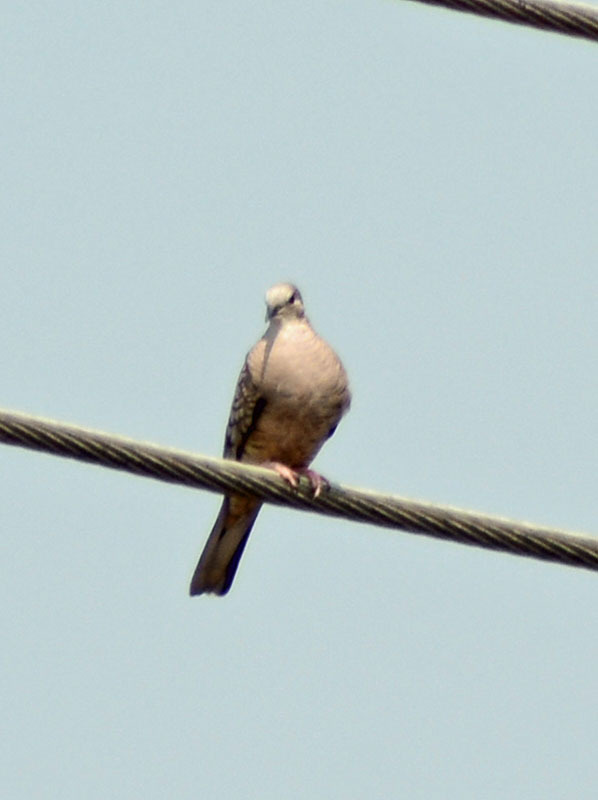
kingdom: Animalia
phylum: Chordata
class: Aves
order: Columbiformes
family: Columbidae
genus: Columbina
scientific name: Columbina inca
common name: Inca dove
